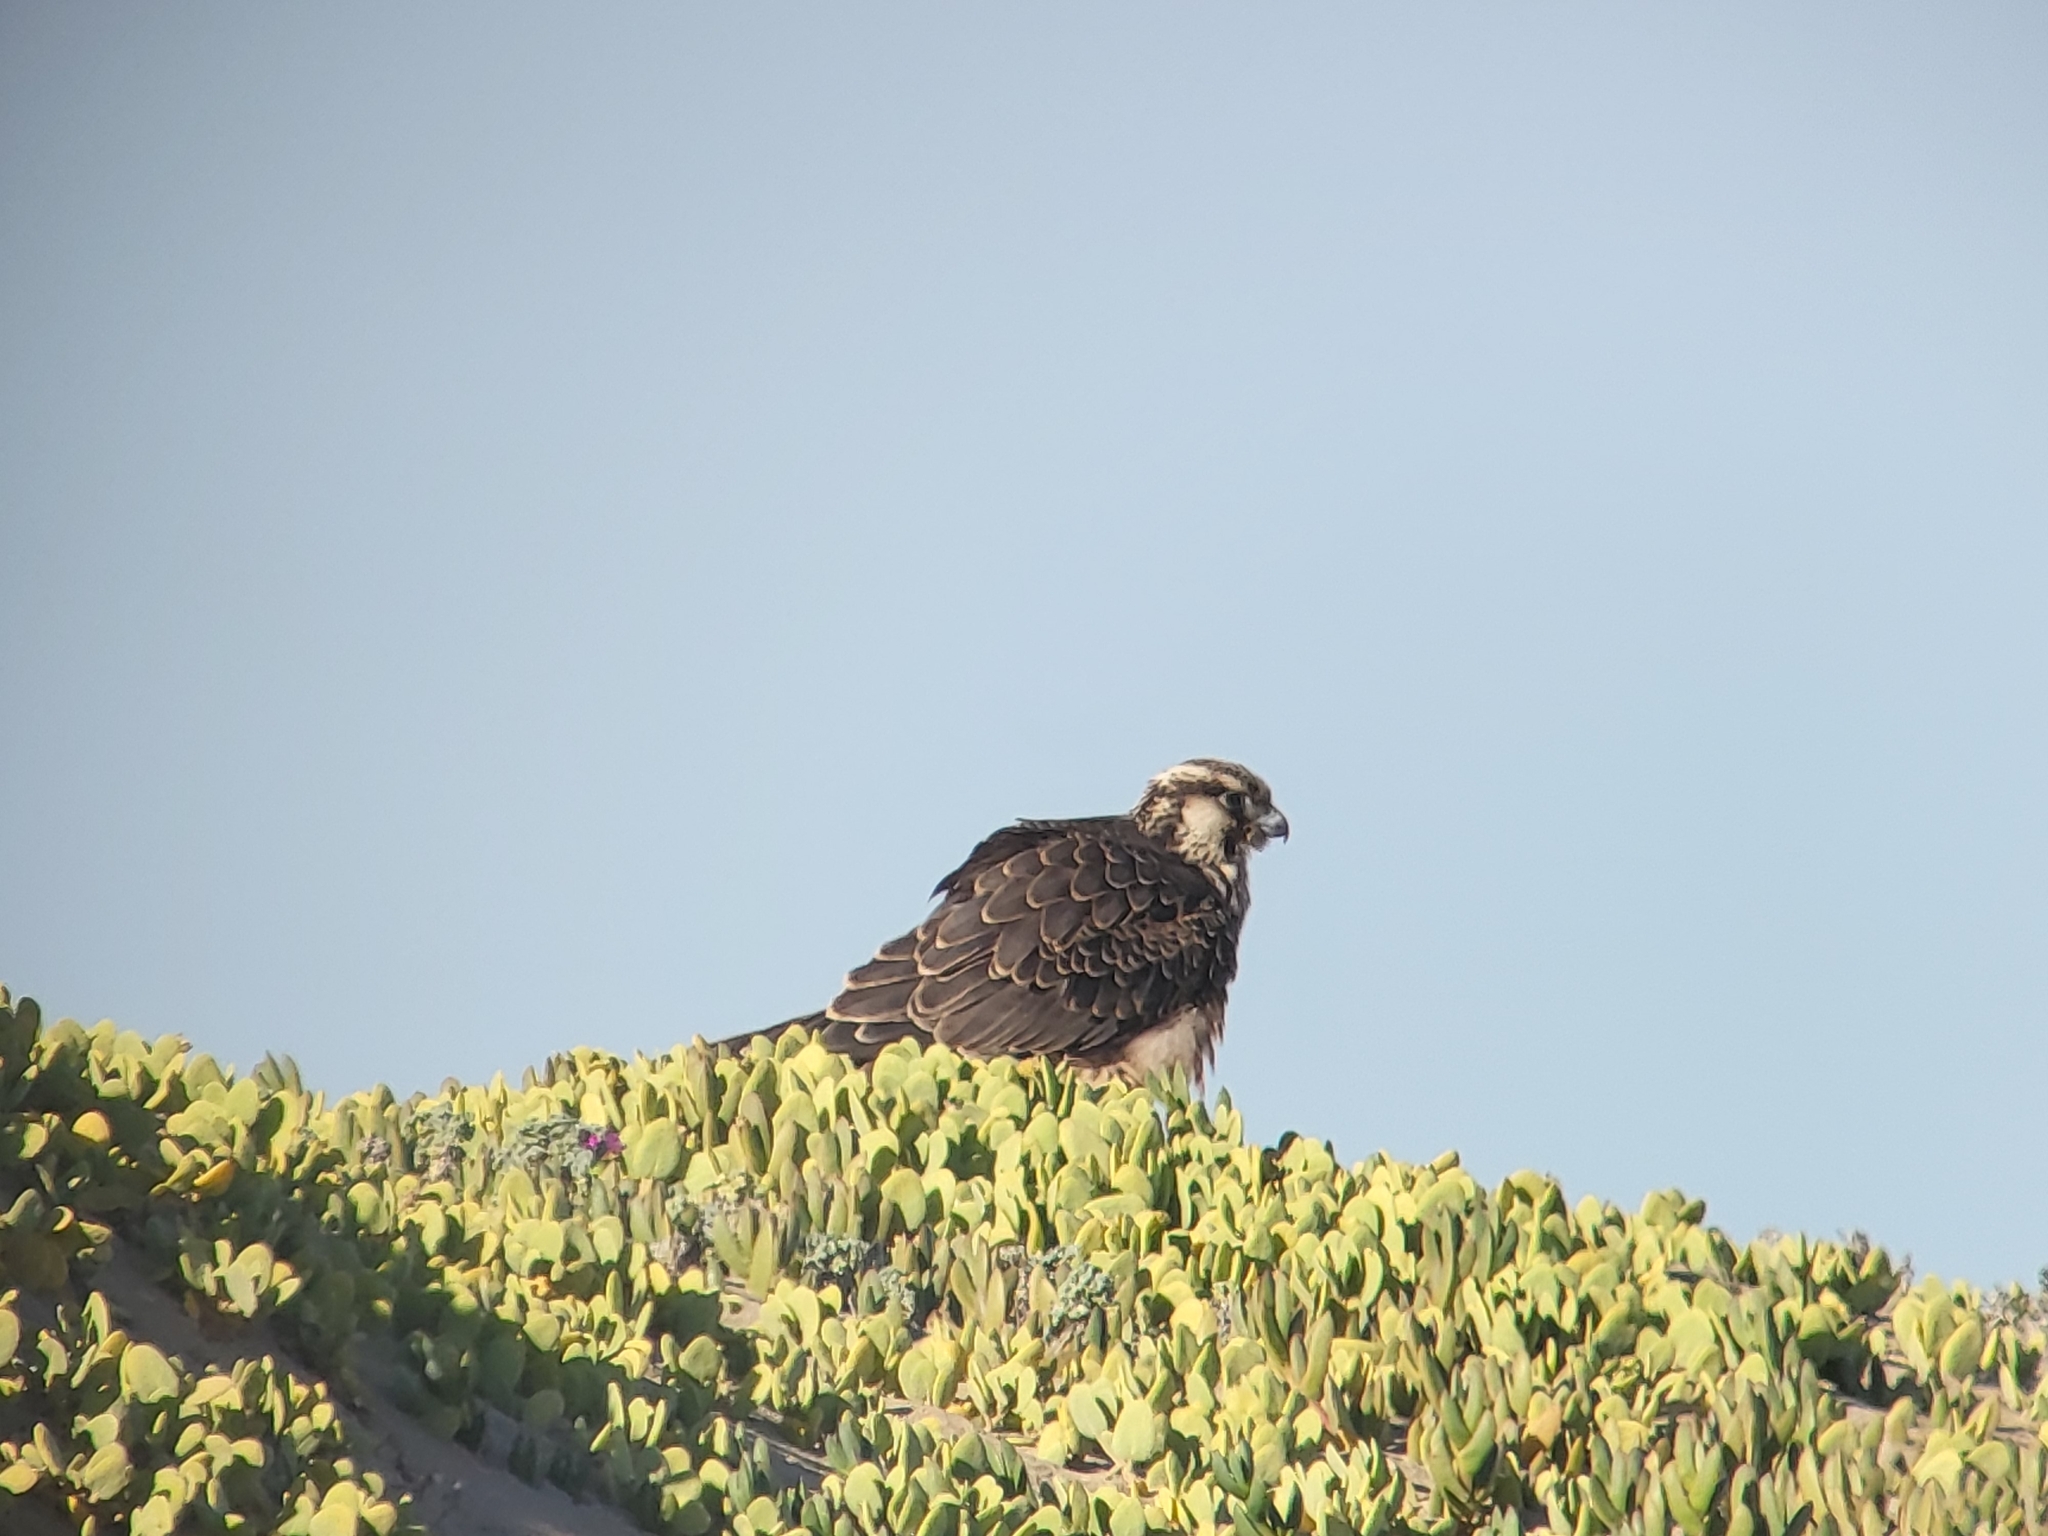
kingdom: Animalia
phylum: Chordata
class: Aves
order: Falconiformes
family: Falconidae
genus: Falco
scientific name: Falco peregrinus
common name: Peregrine falcon
